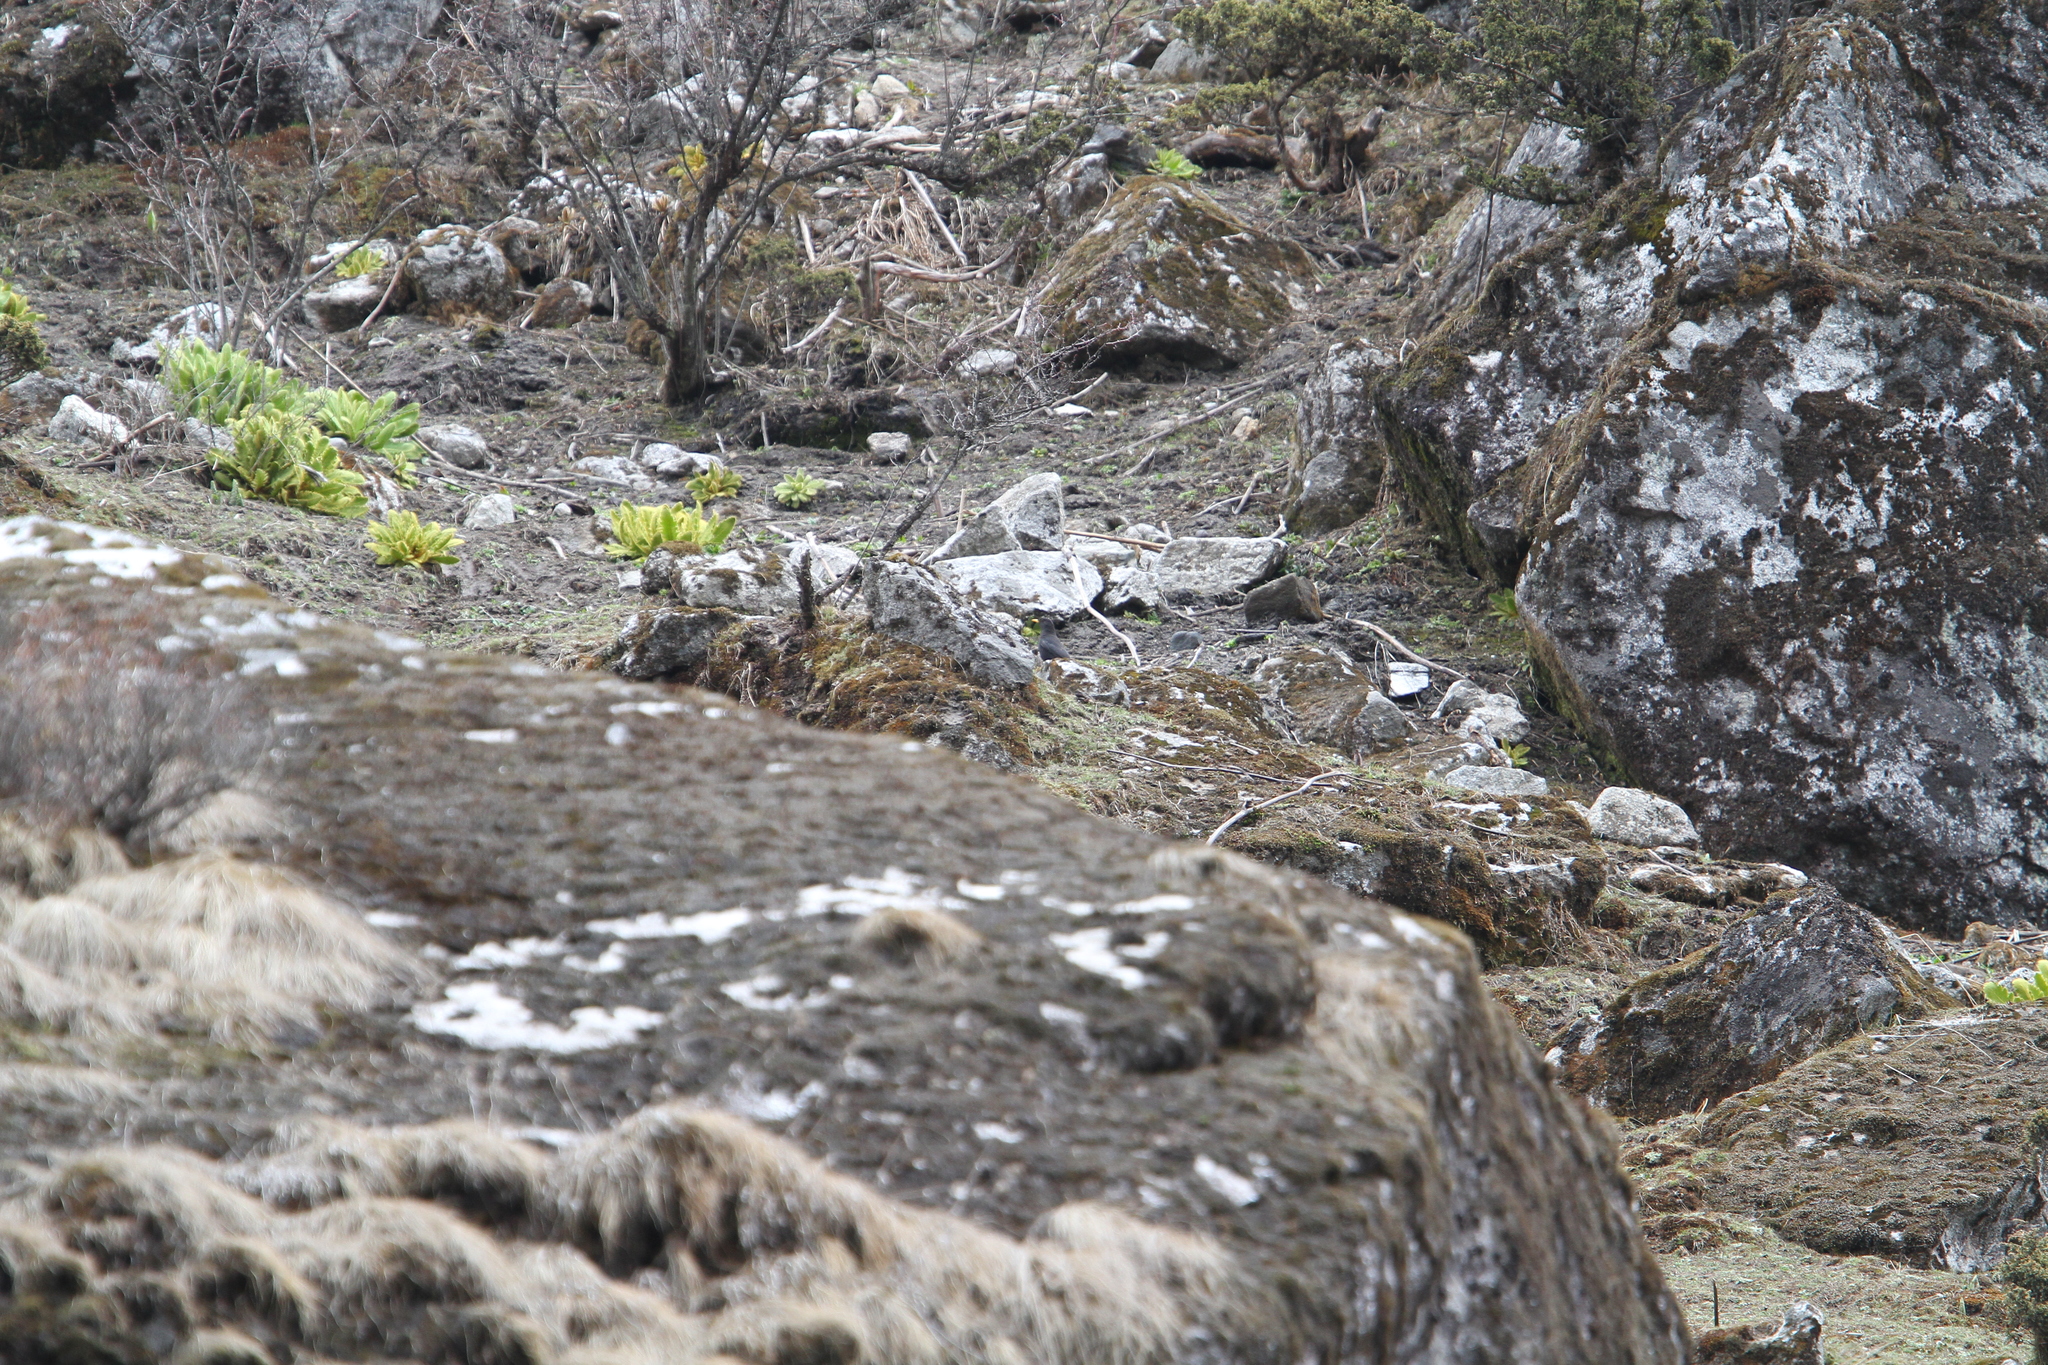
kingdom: Animalia
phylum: Chordata
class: Aves
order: Passeriformes
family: Turdidae
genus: Turdus
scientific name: Turdus maximus
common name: Tibetan blackbird
